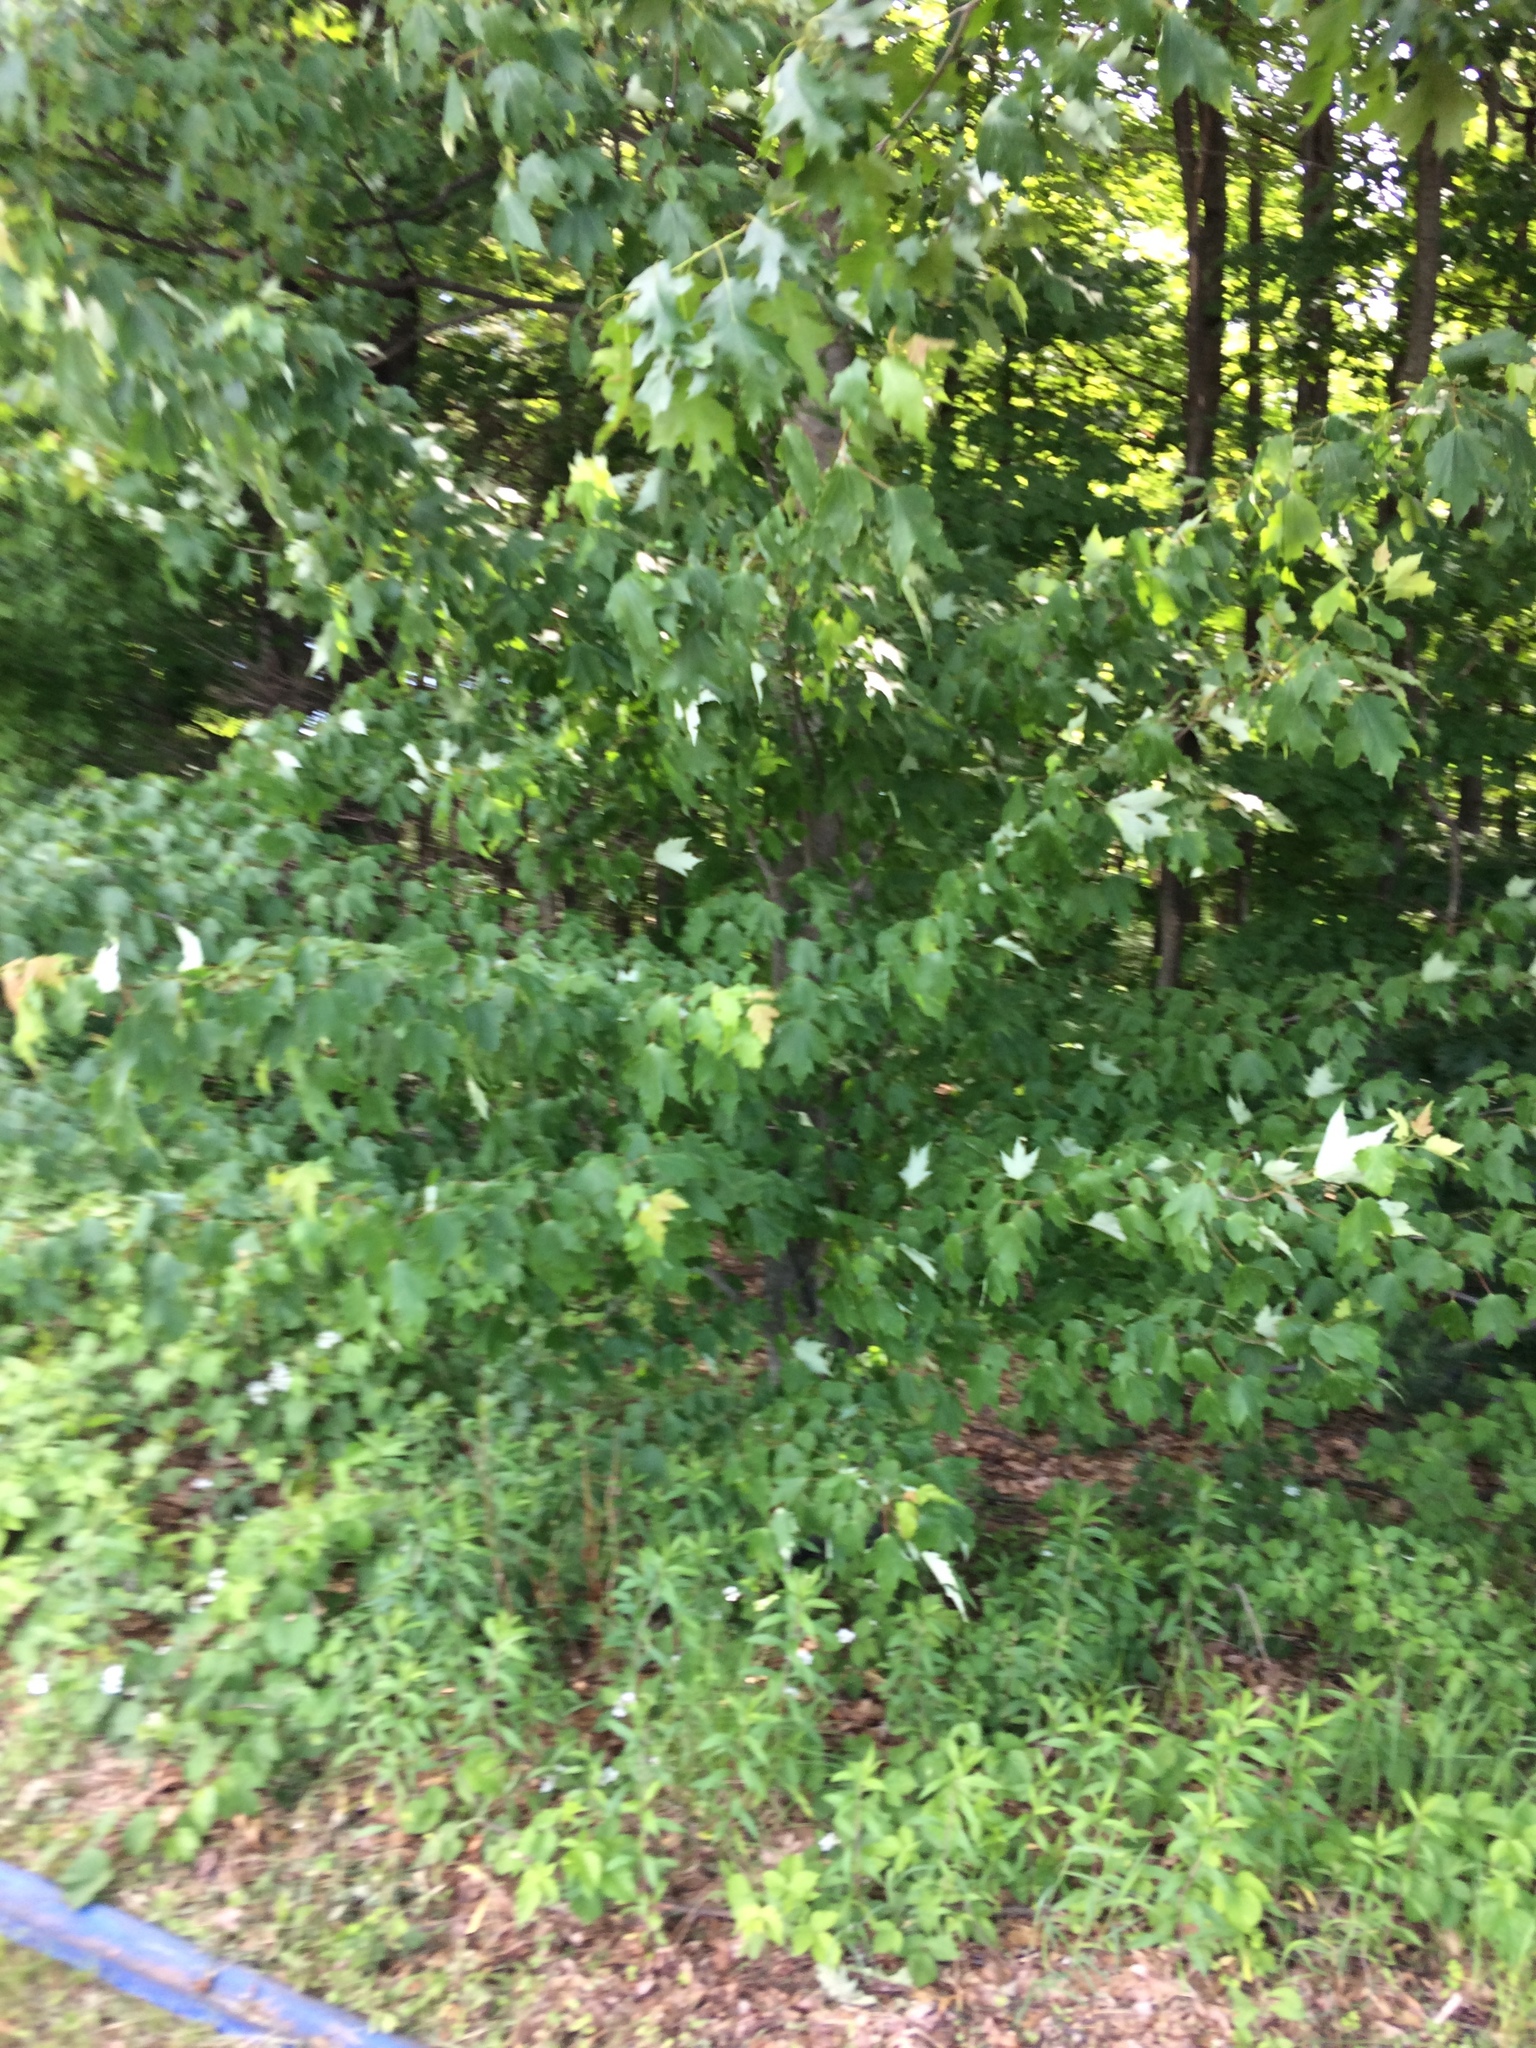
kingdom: Plantae
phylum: Tracheophyta
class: Magnoliopsida
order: Sapindales
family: Sapindaceae
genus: Acer
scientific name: Acer rubrum
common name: Red maple
